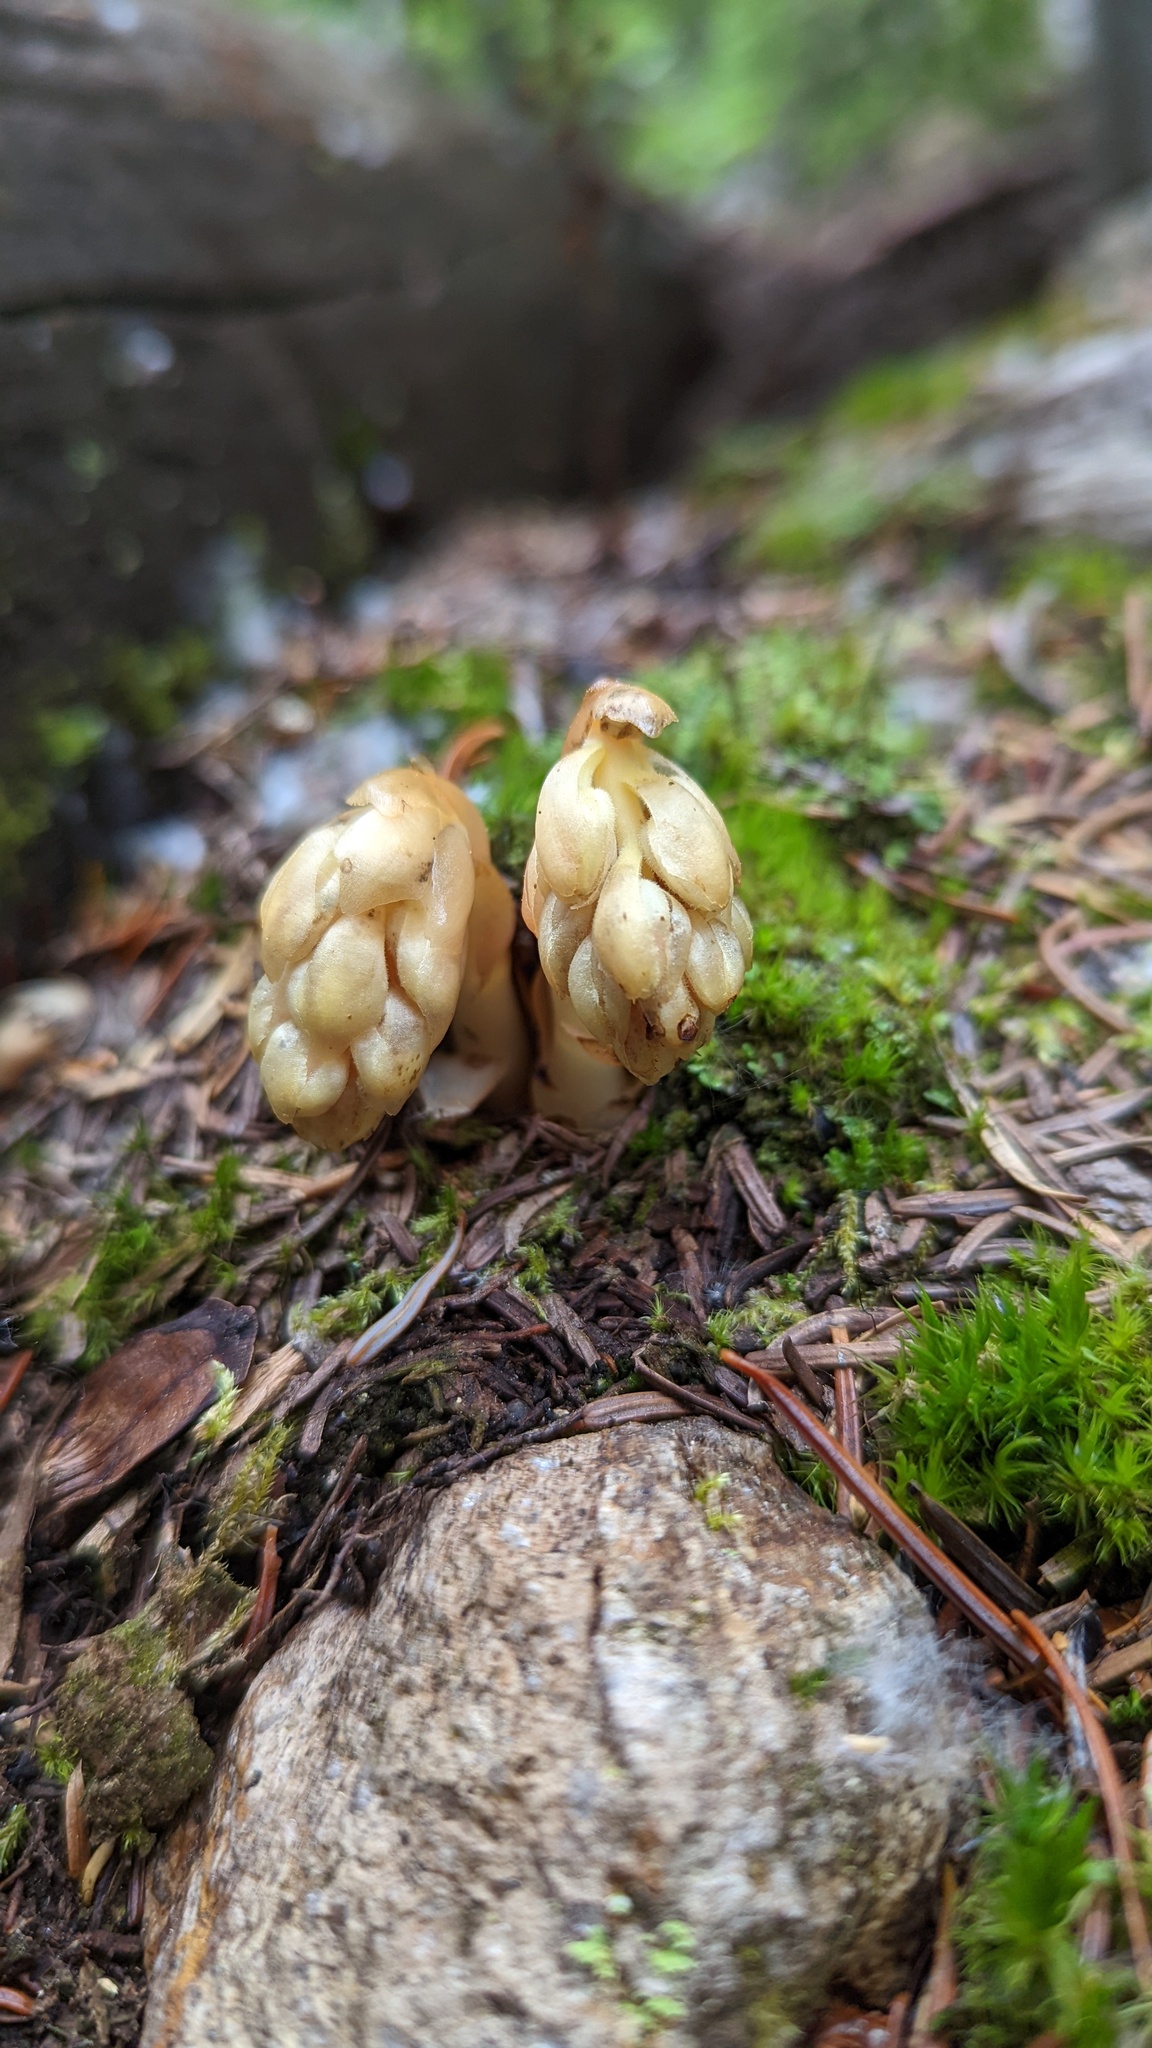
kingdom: Plantae
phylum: Tracheophyta
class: Magnoliopsida
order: Ericales
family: Ericaceae
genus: Hypopitys
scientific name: Hypopitys monotropa
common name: Yellow bird's-nest
